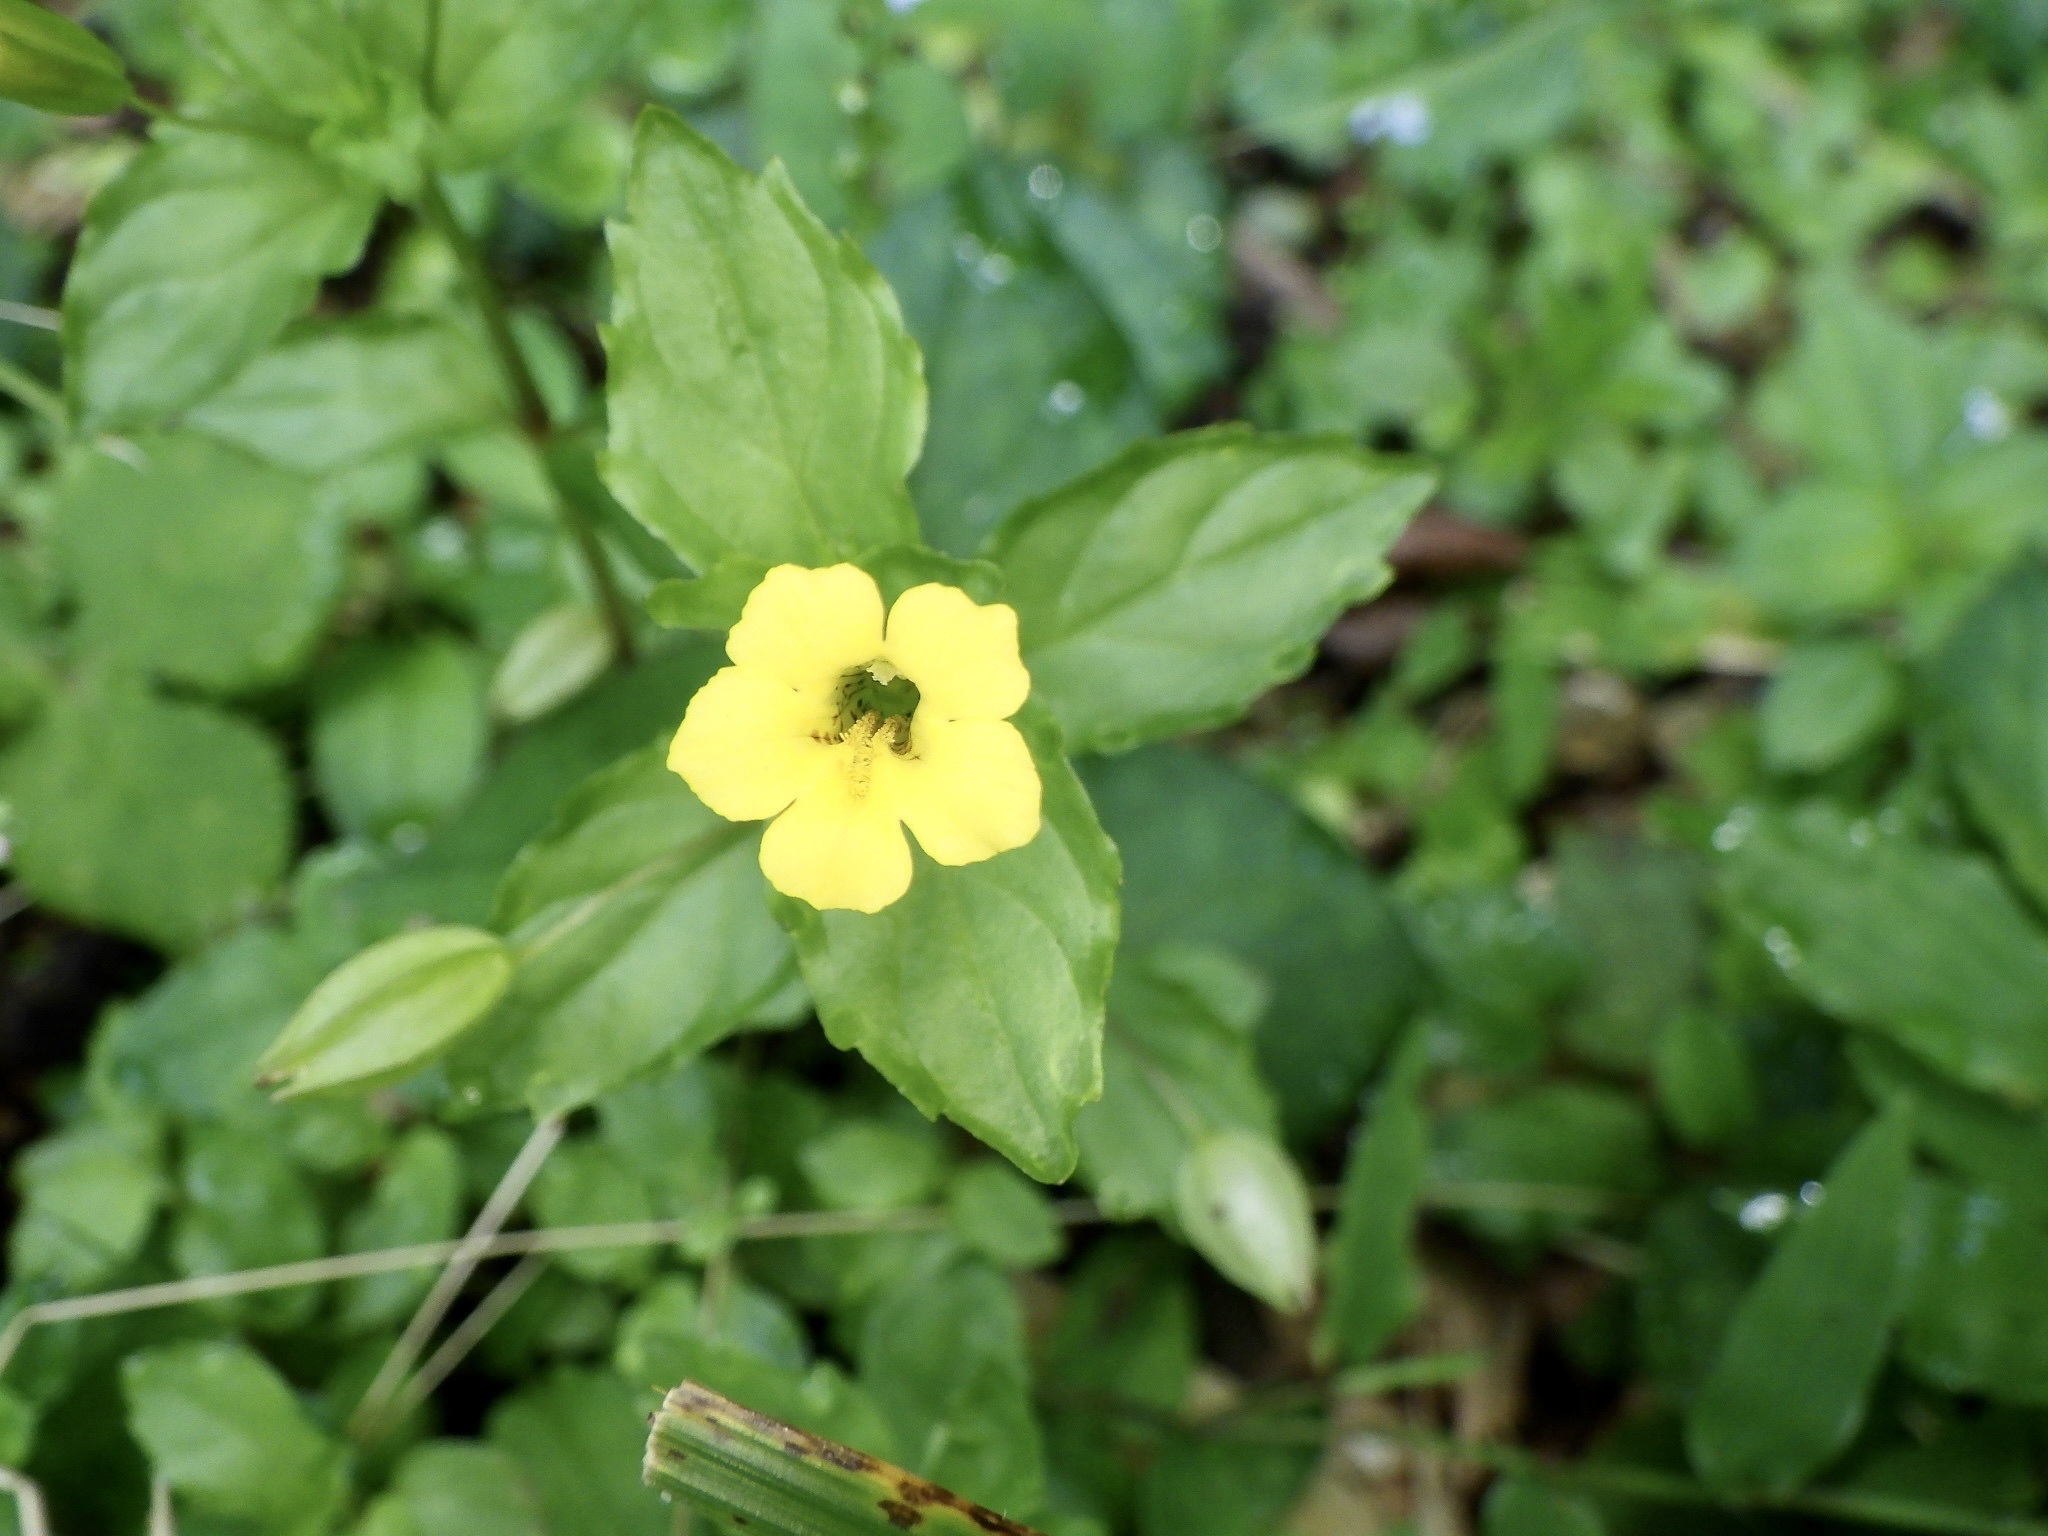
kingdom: Plantae
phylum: Tracheophyta
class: Magnoliopsida
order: Lamiales
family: Phrymaceae
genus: Erythranthe
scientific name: Erythranthe nepalensis
